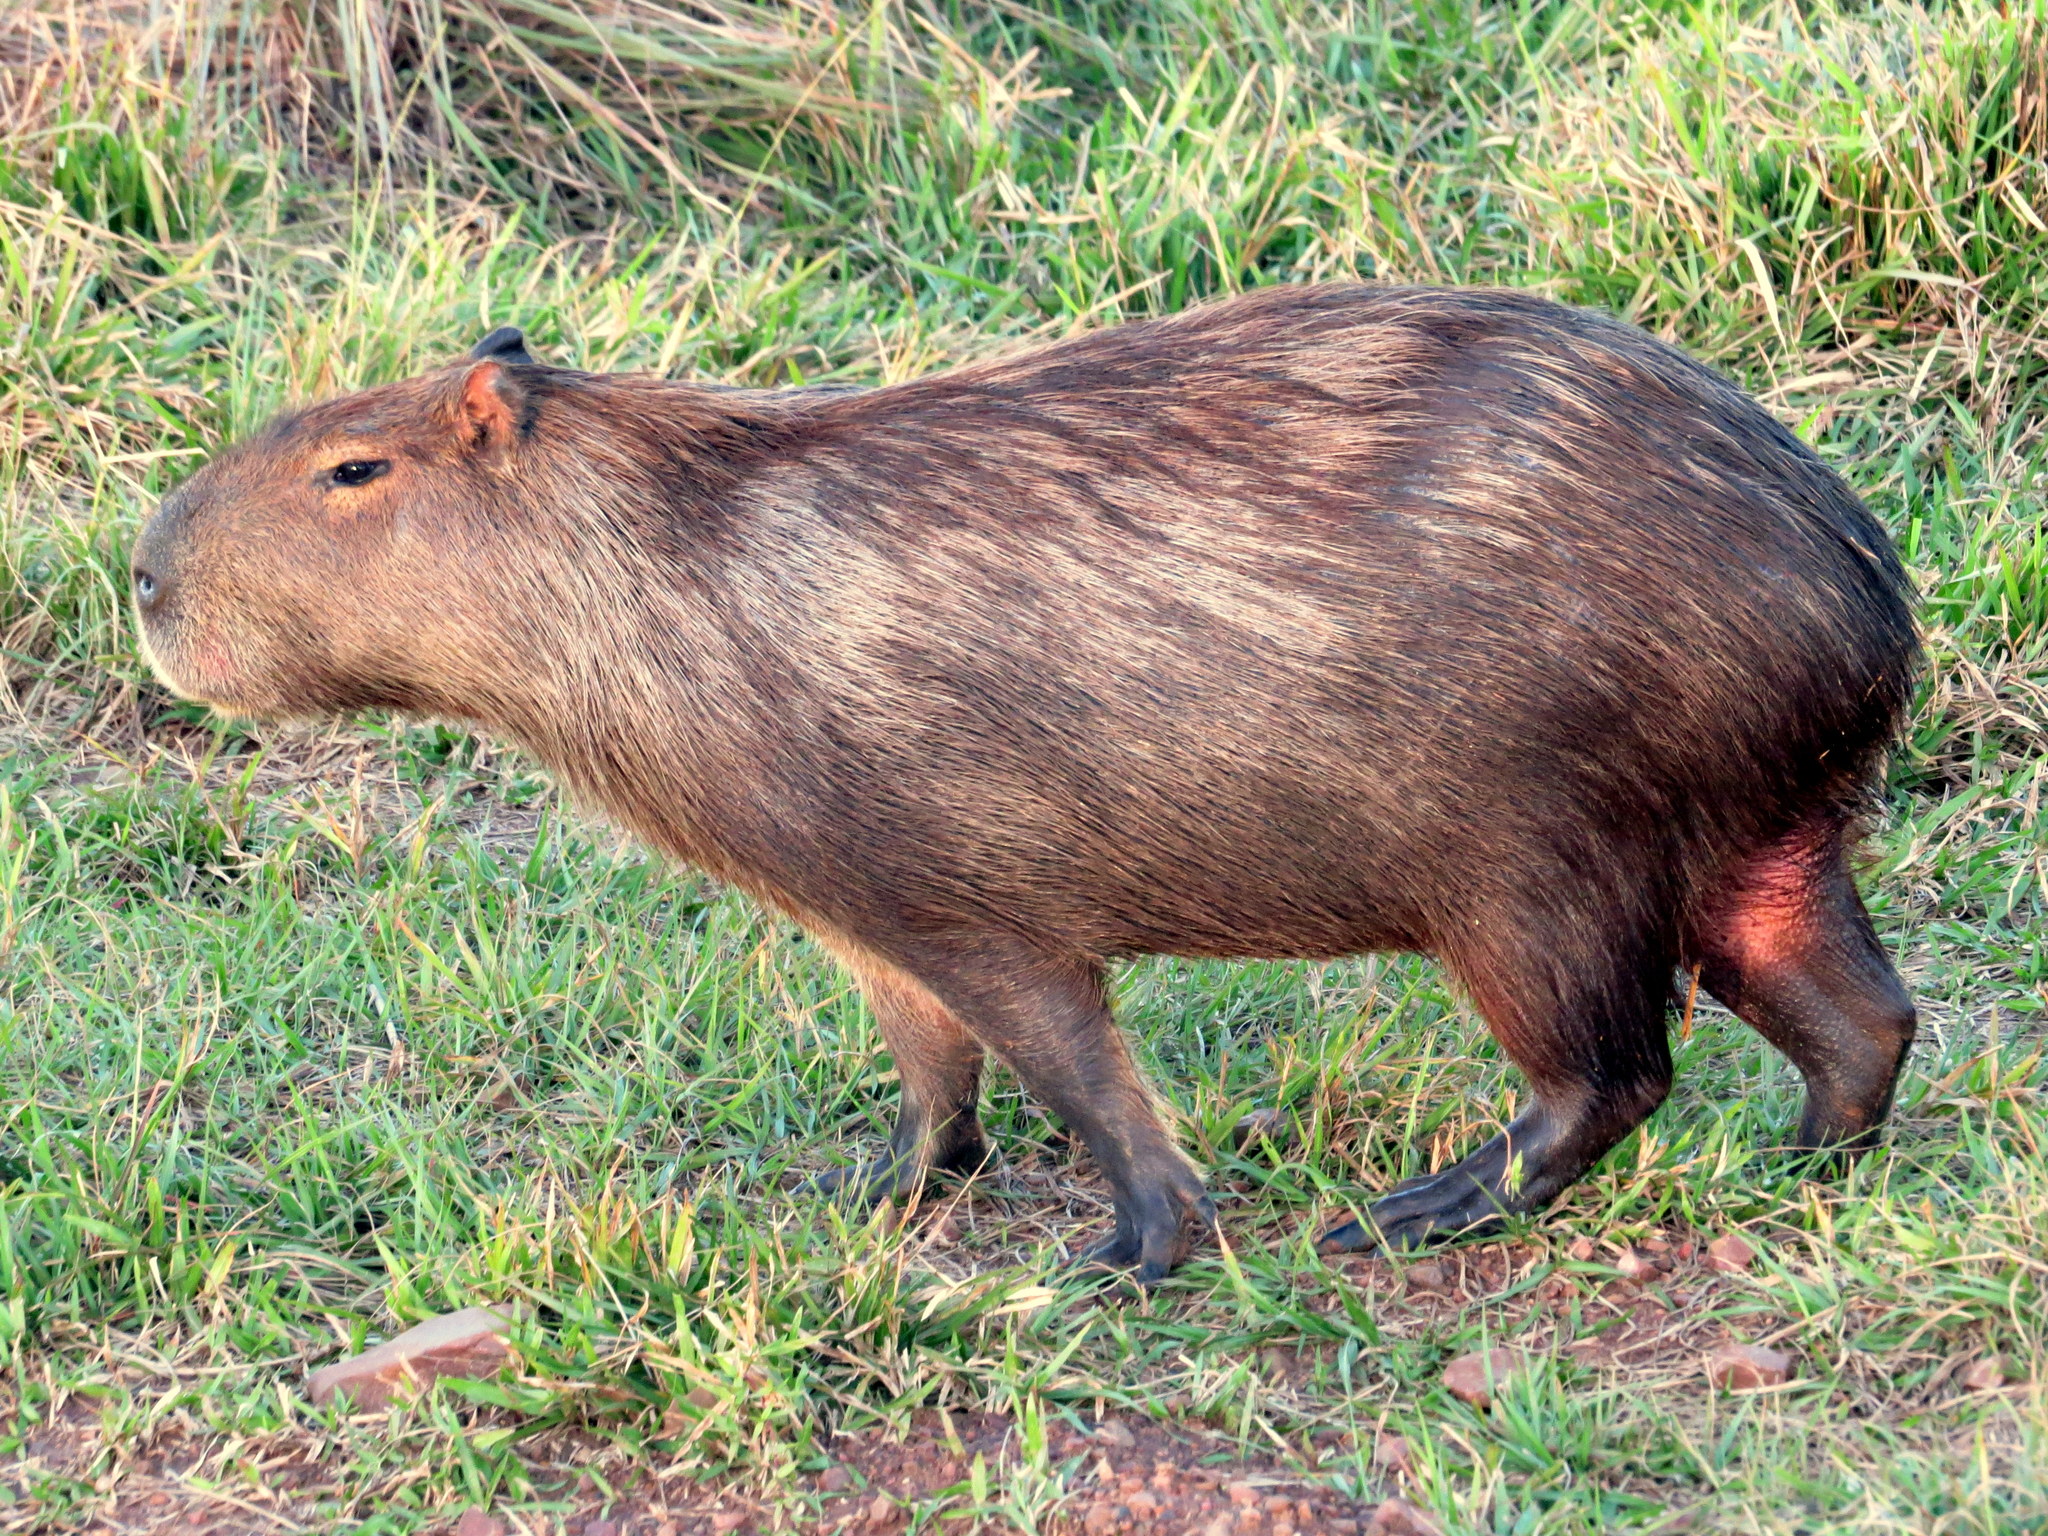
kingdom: Animalia
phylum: Chordata
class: Mammalia
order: Rodentia
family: Caviidae
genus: Hydrochoerus
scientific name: Hydrochoerus hydrochaeris
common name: Capybara
